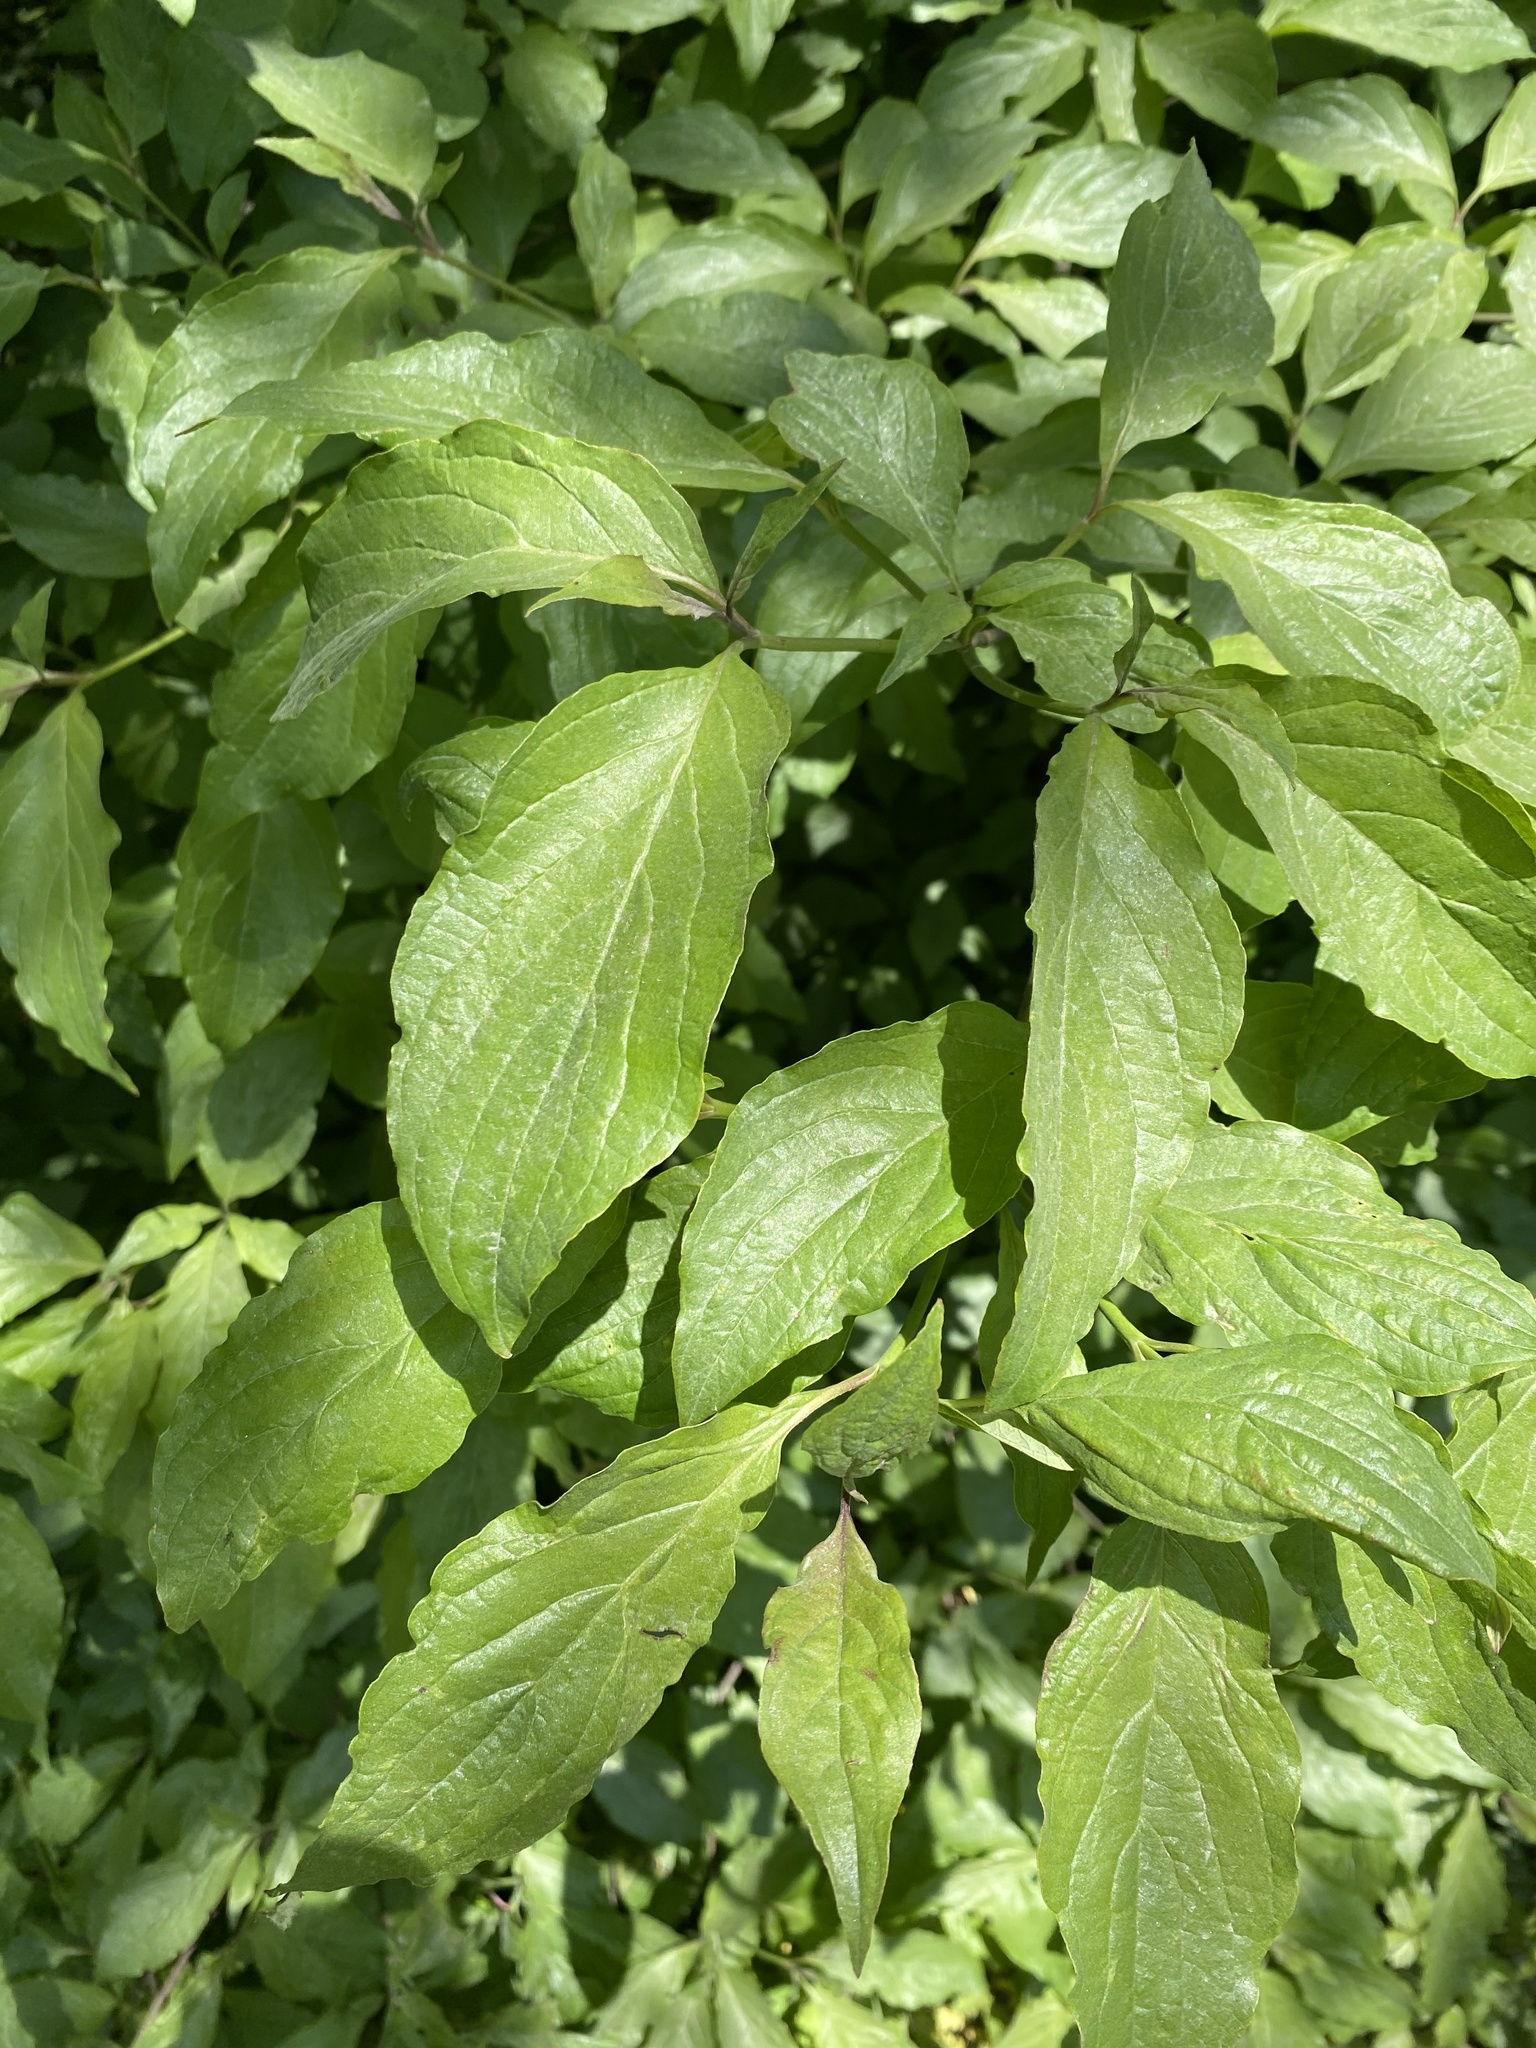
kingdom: Plantae
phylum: Tracheophyta
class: Magnoliopsida
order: Cornales
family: Cornaceae
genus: Cornus
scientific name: Cornus florida
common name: Flowering dogwood
